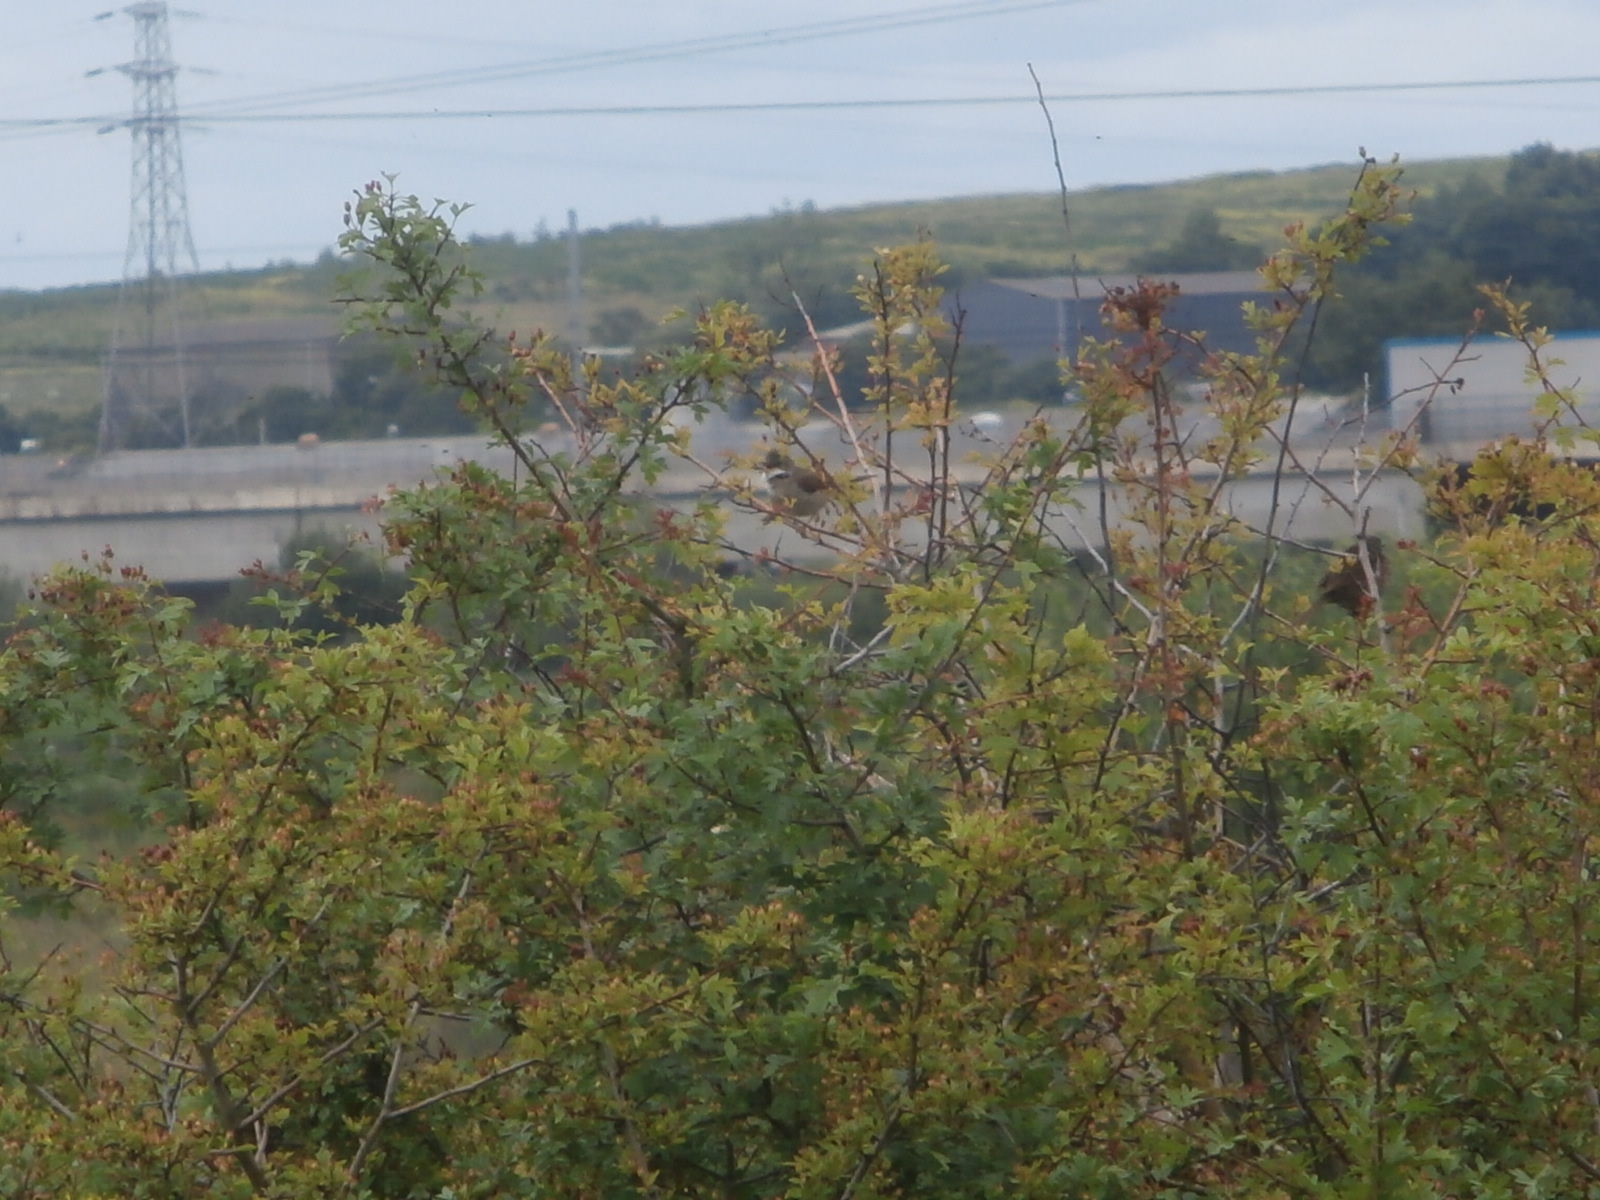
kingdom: Animalia
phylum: Chordata
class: Aves
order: Passeriformes
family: Sylviidae
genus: Sylvia
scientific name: Sylvia communis
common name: Common whitethroat
